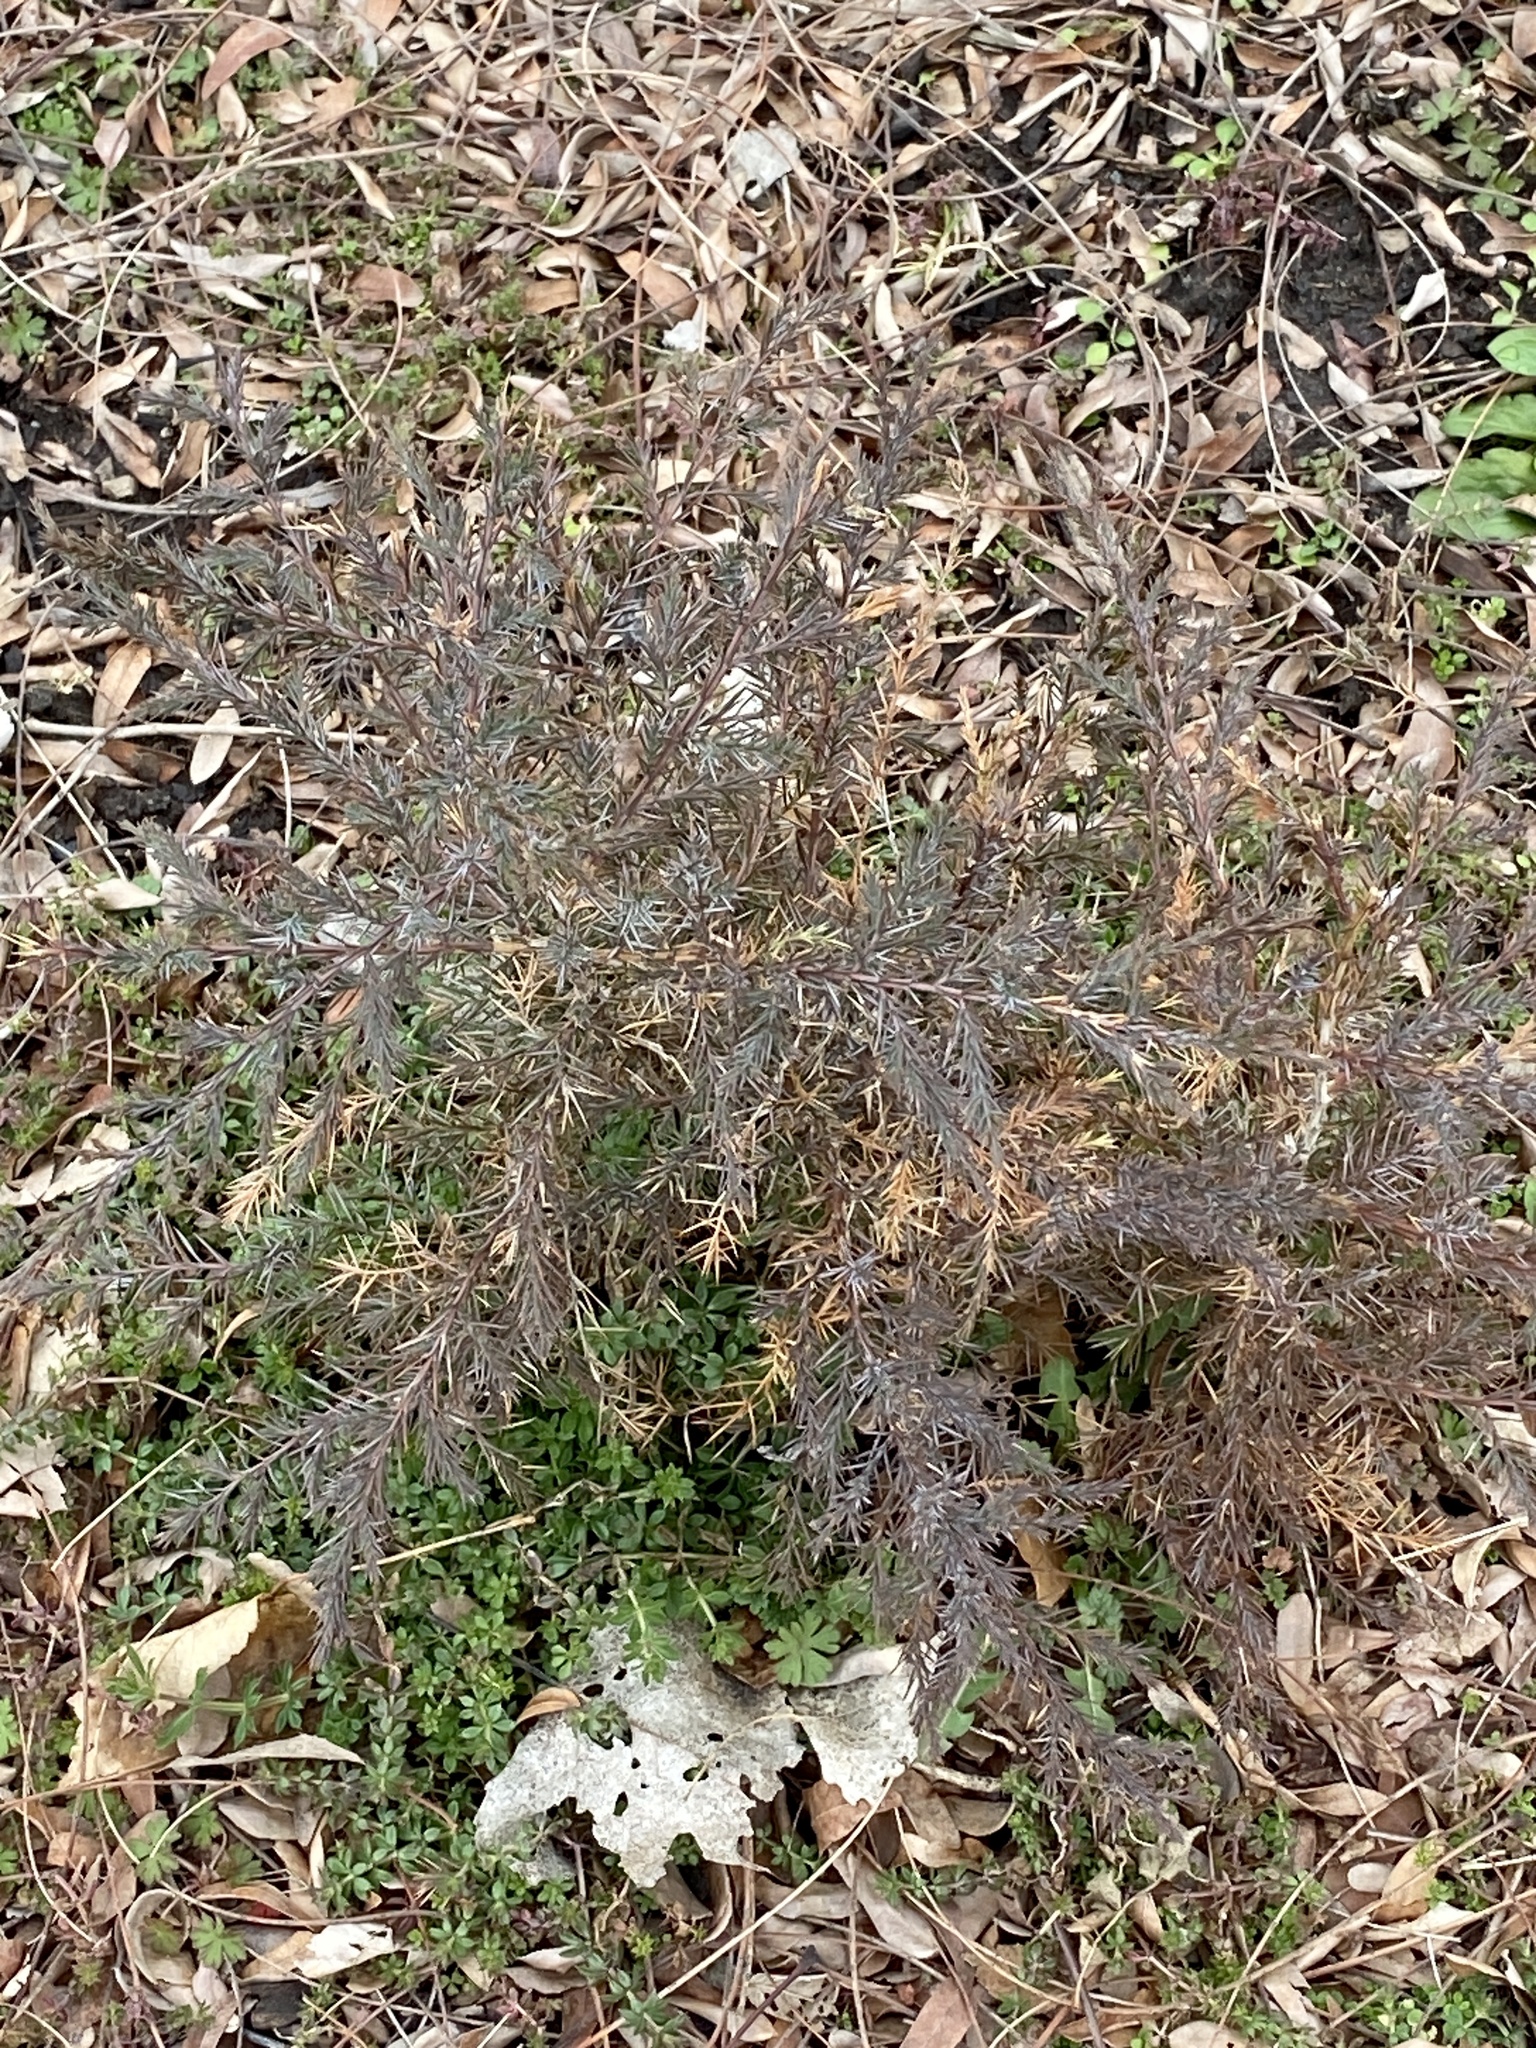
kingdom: Plantae
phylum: Tracheophyta
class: Pinopsida
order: Pinales
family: Cupressaceae
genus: Juniperus
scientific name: Juniperus virginiana
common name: Red juniper
